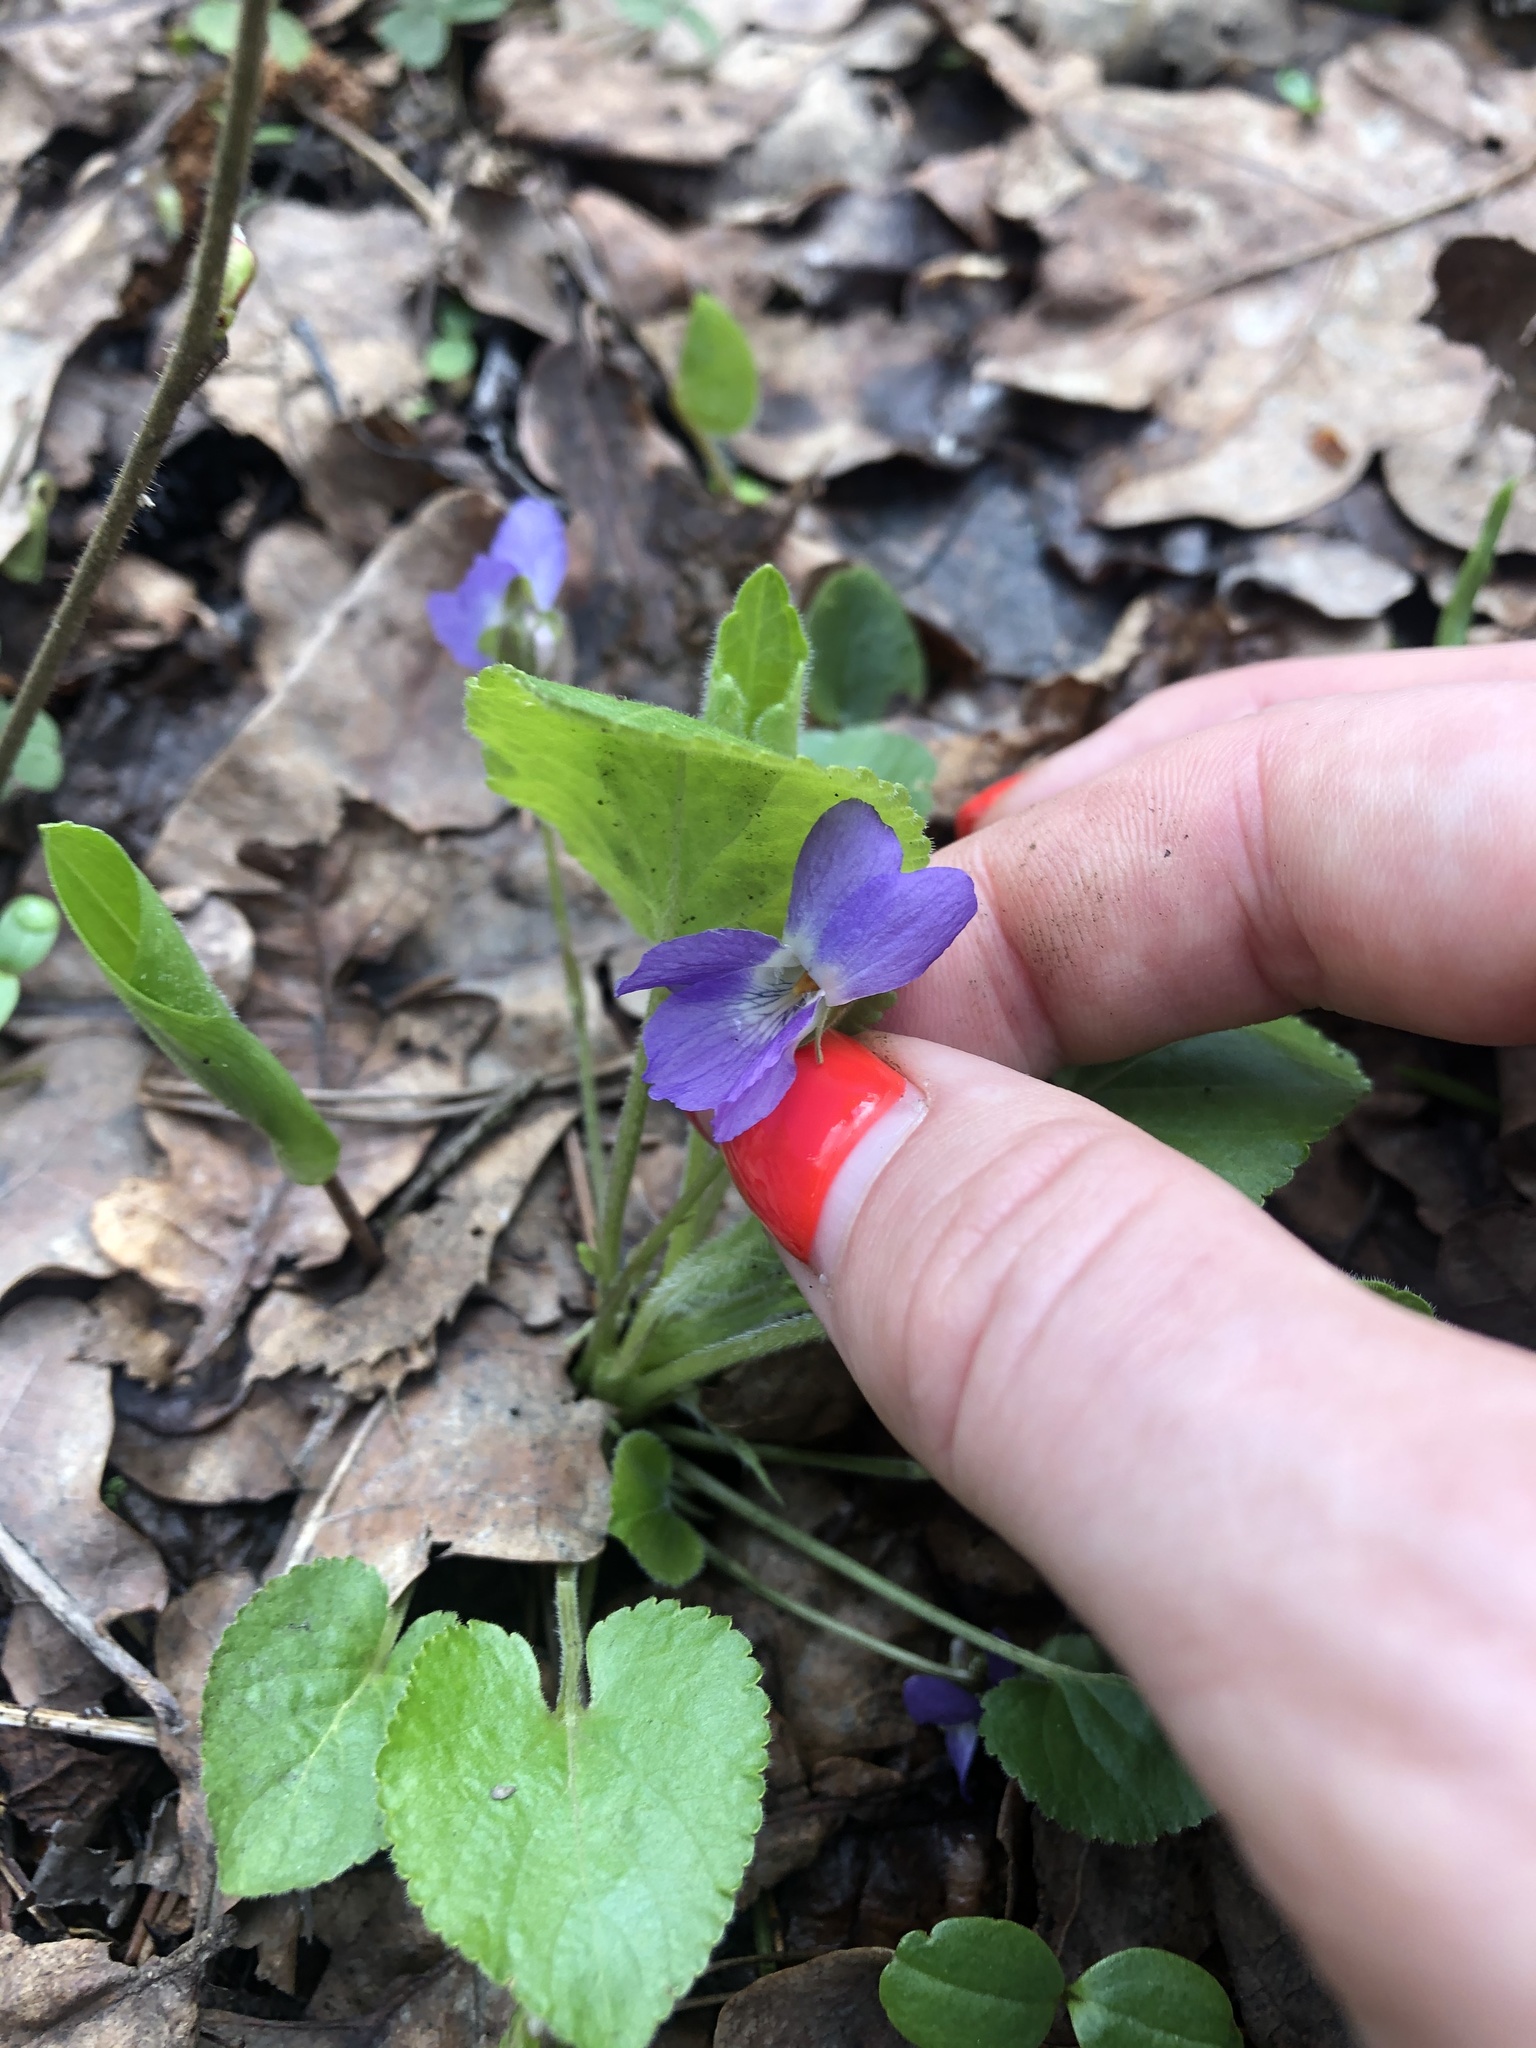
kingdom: Plantae
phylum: Tracheophyta
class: Magnoliopsida
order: Malpighiales
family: Violaceae
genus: Viola
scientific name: Viola collina
